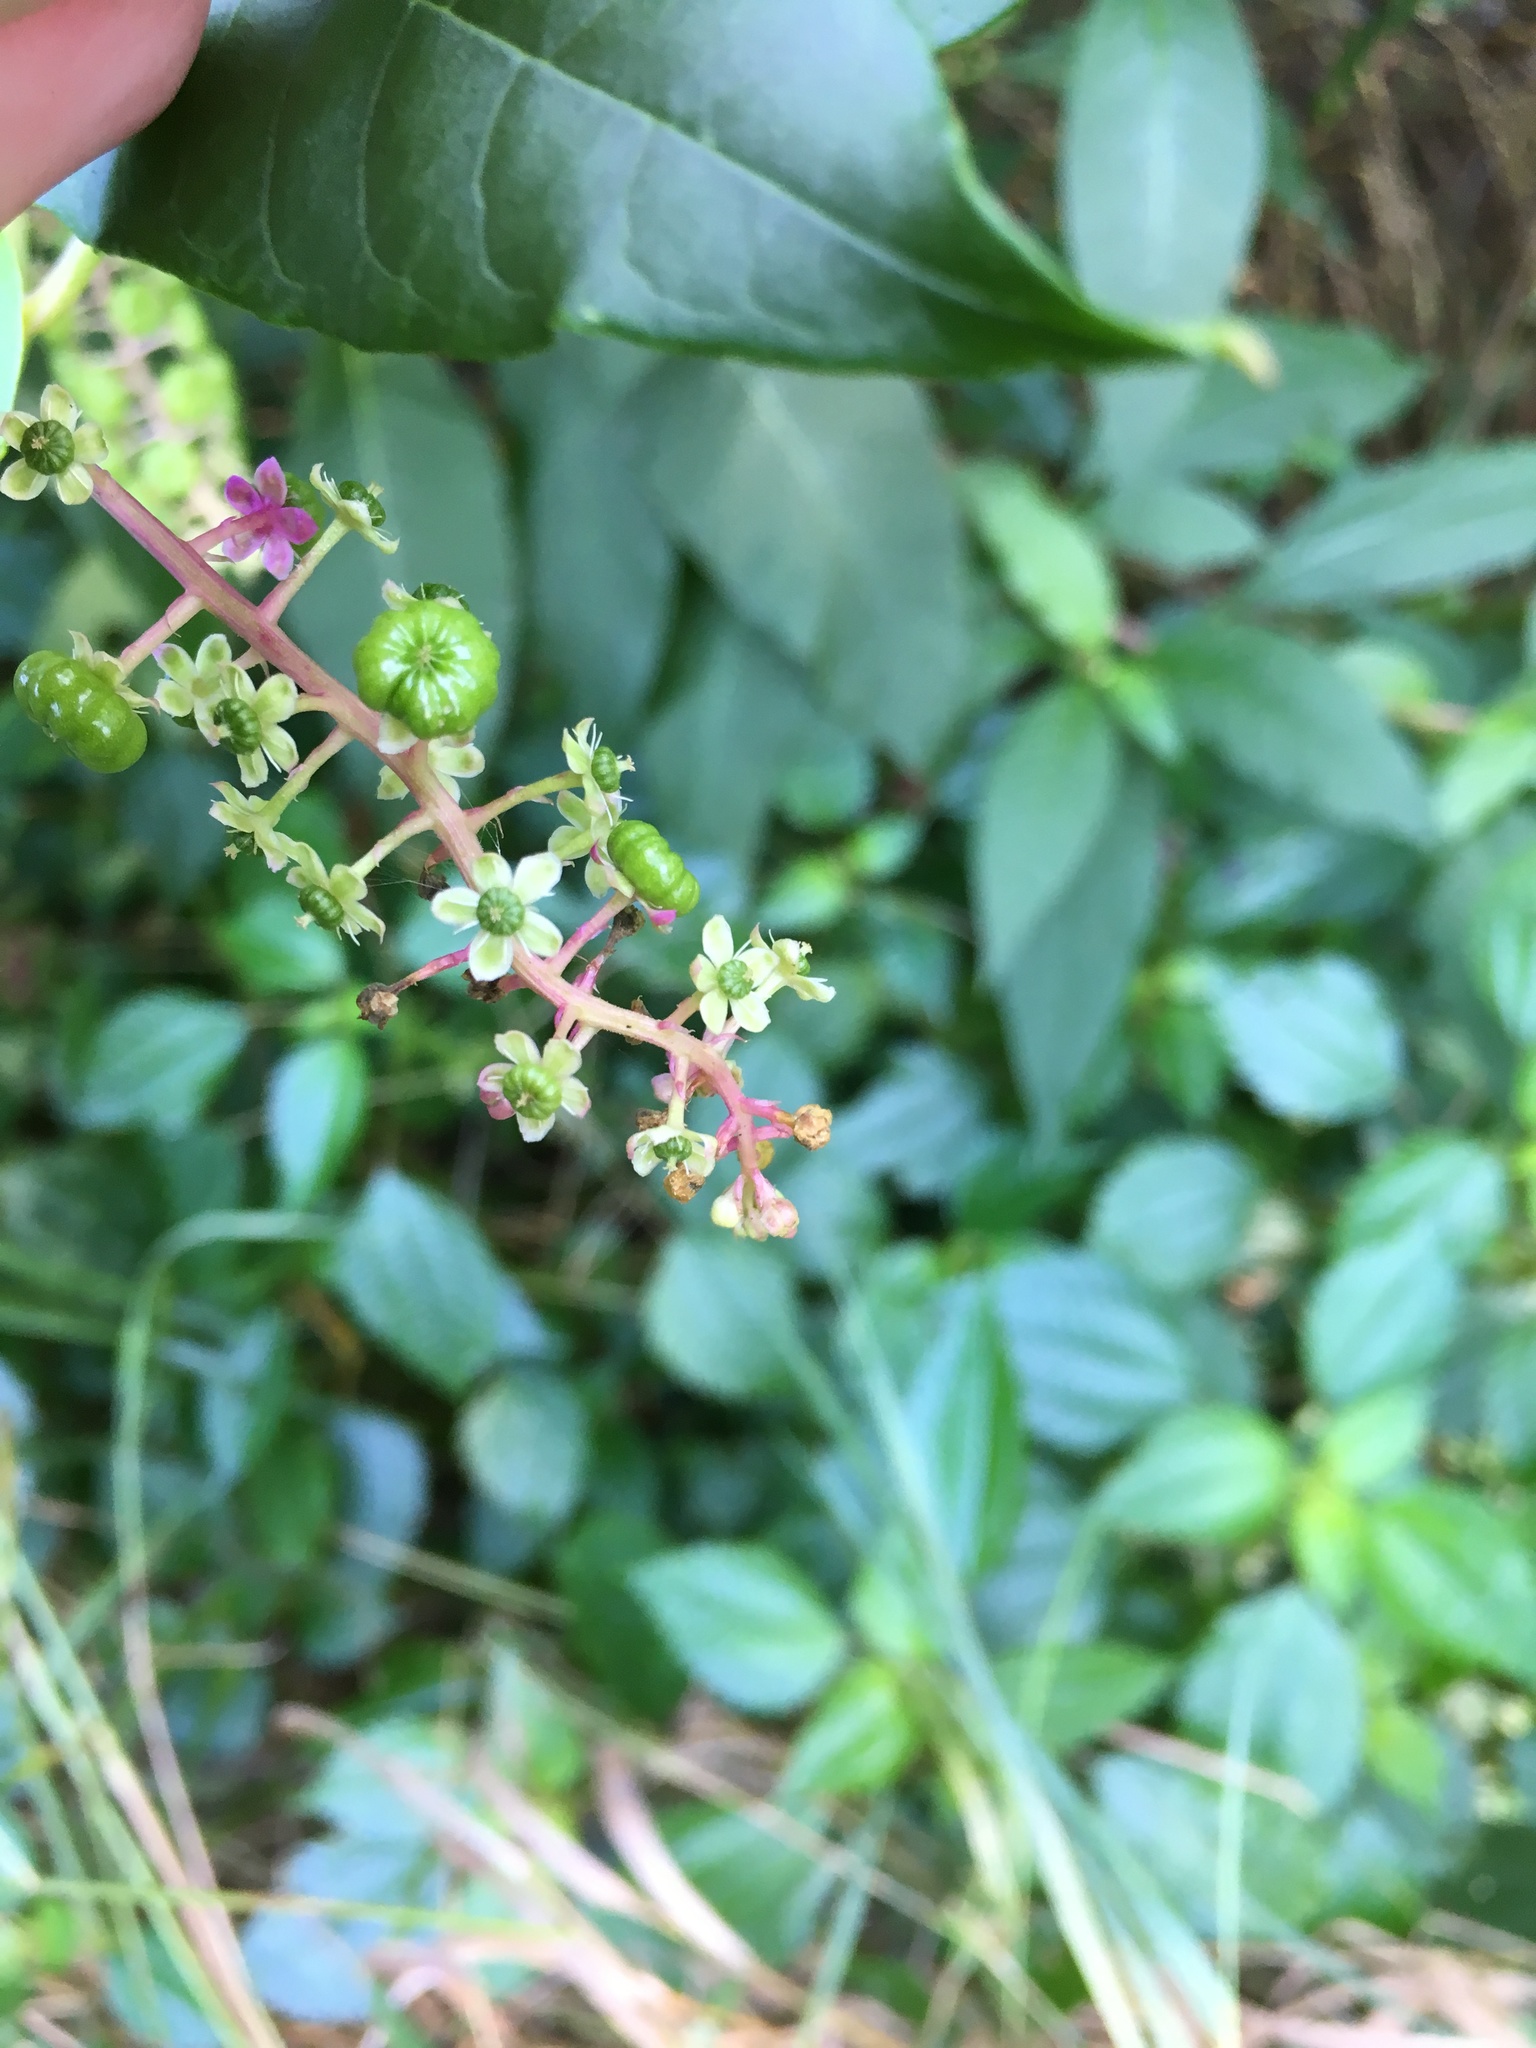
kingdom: Plantae
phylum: Tracheophyta
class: Magnoliopsida
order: Caryophyllales
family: Phytolaccaceae
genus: Phytolacca
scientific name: Phytolacca americana
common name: American pokeweed
